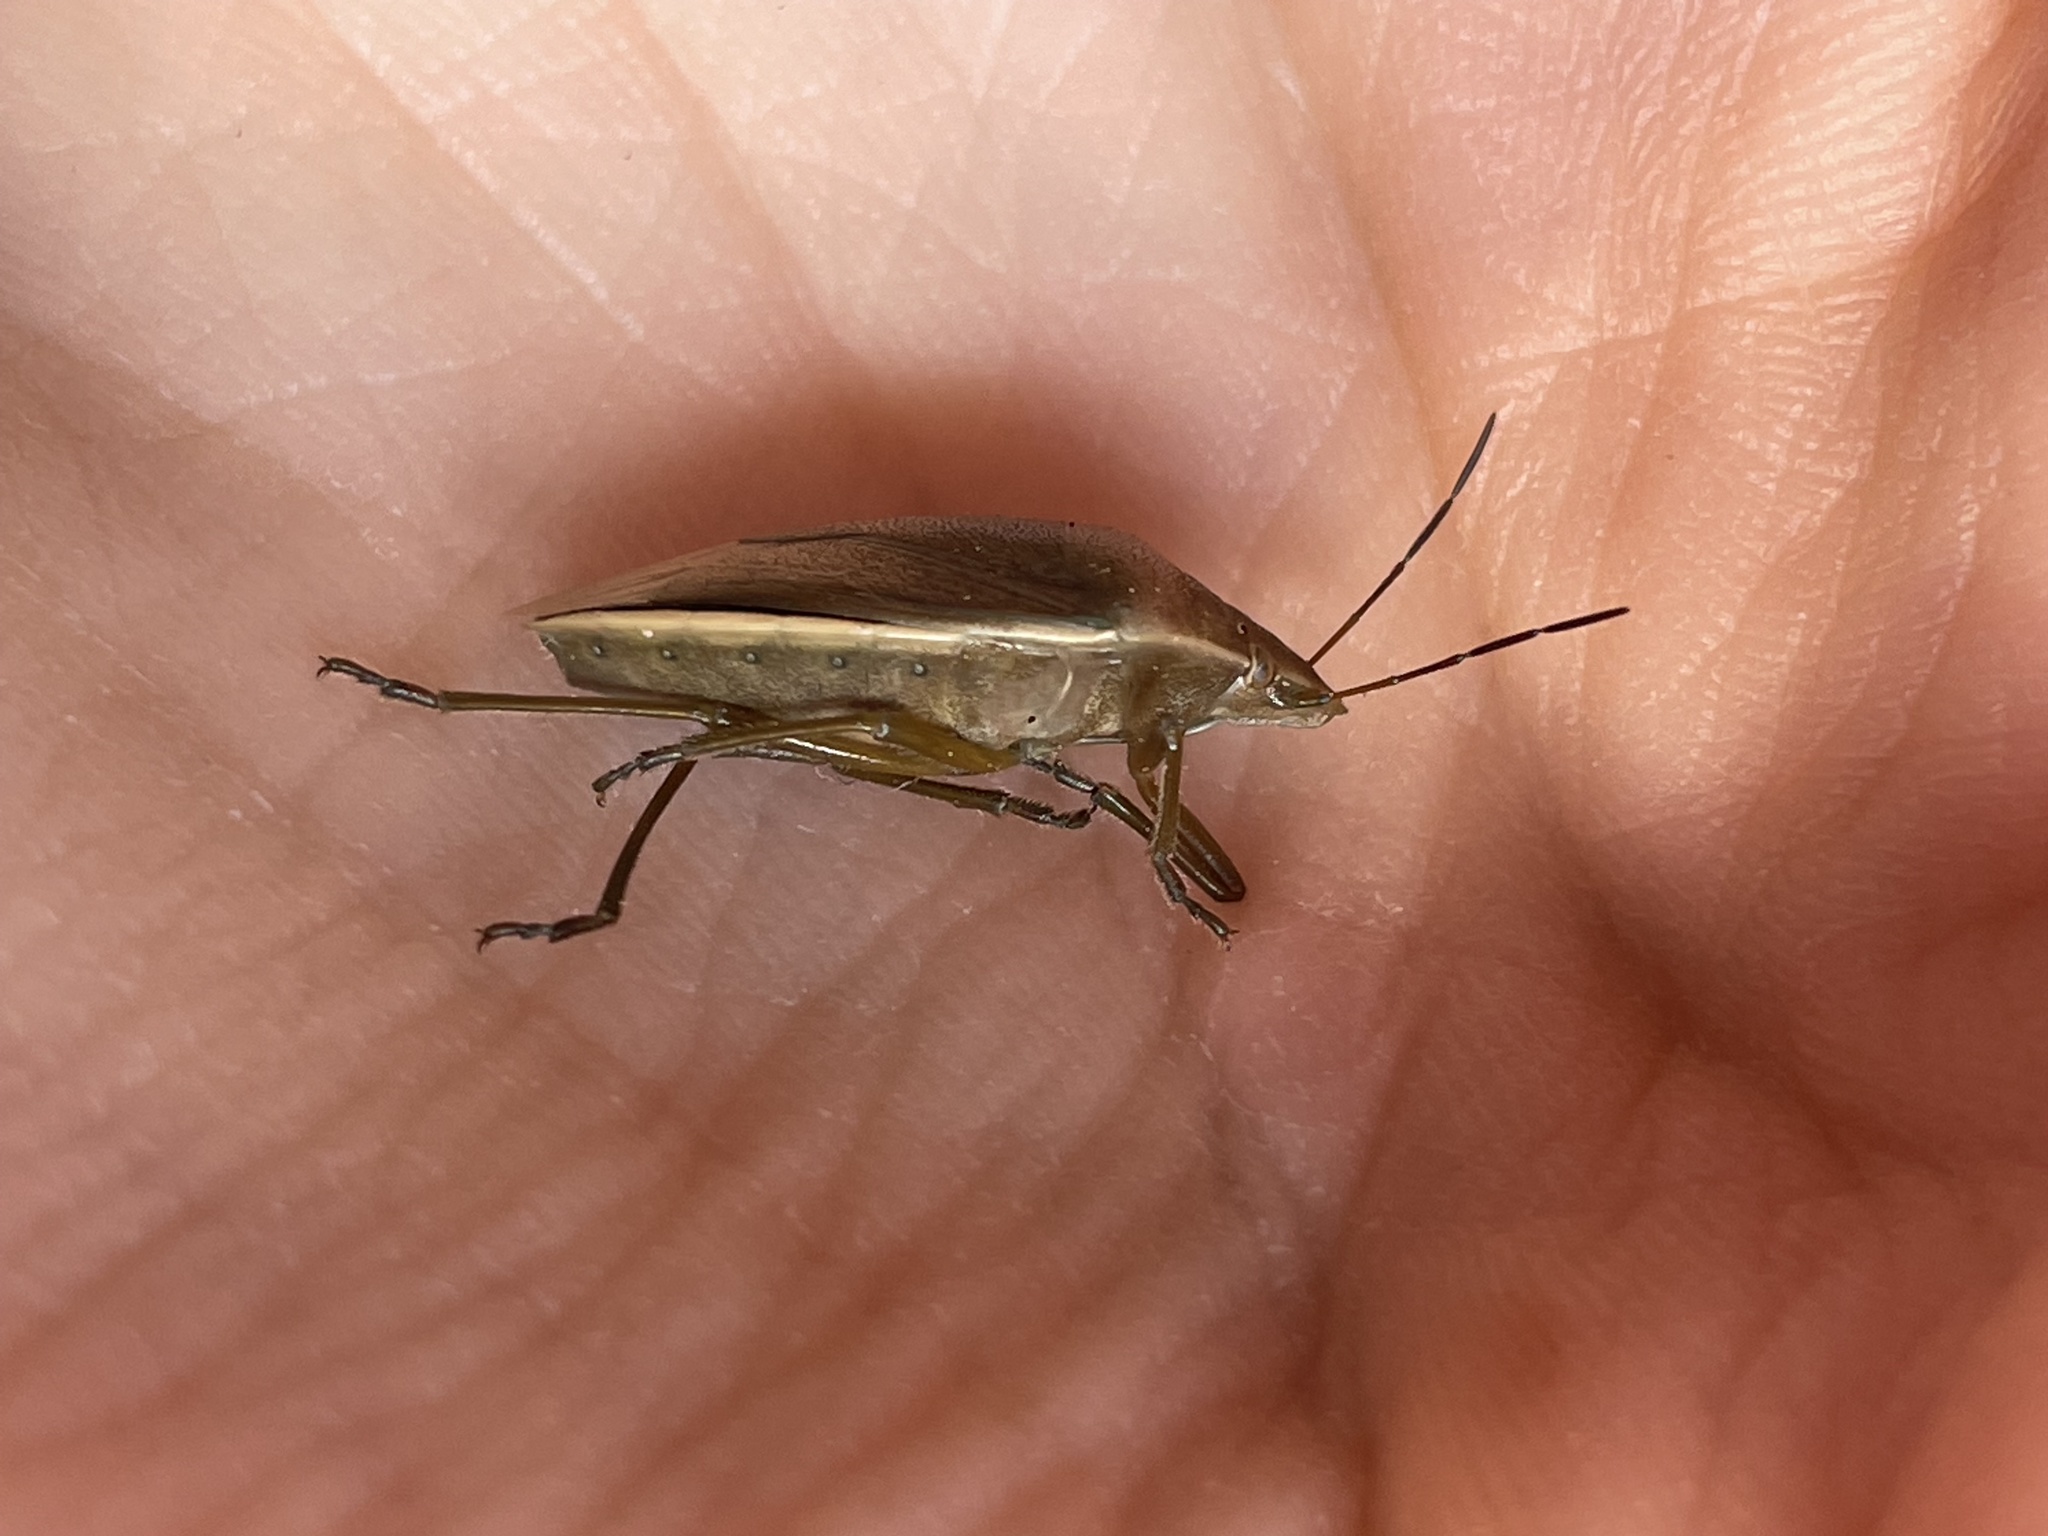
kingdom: Animalia
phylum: Arthropoda
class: Insecta
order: Hemiptera
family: Pentatomidae
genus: Chlorochroa
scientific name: Chlorochroa senilis
